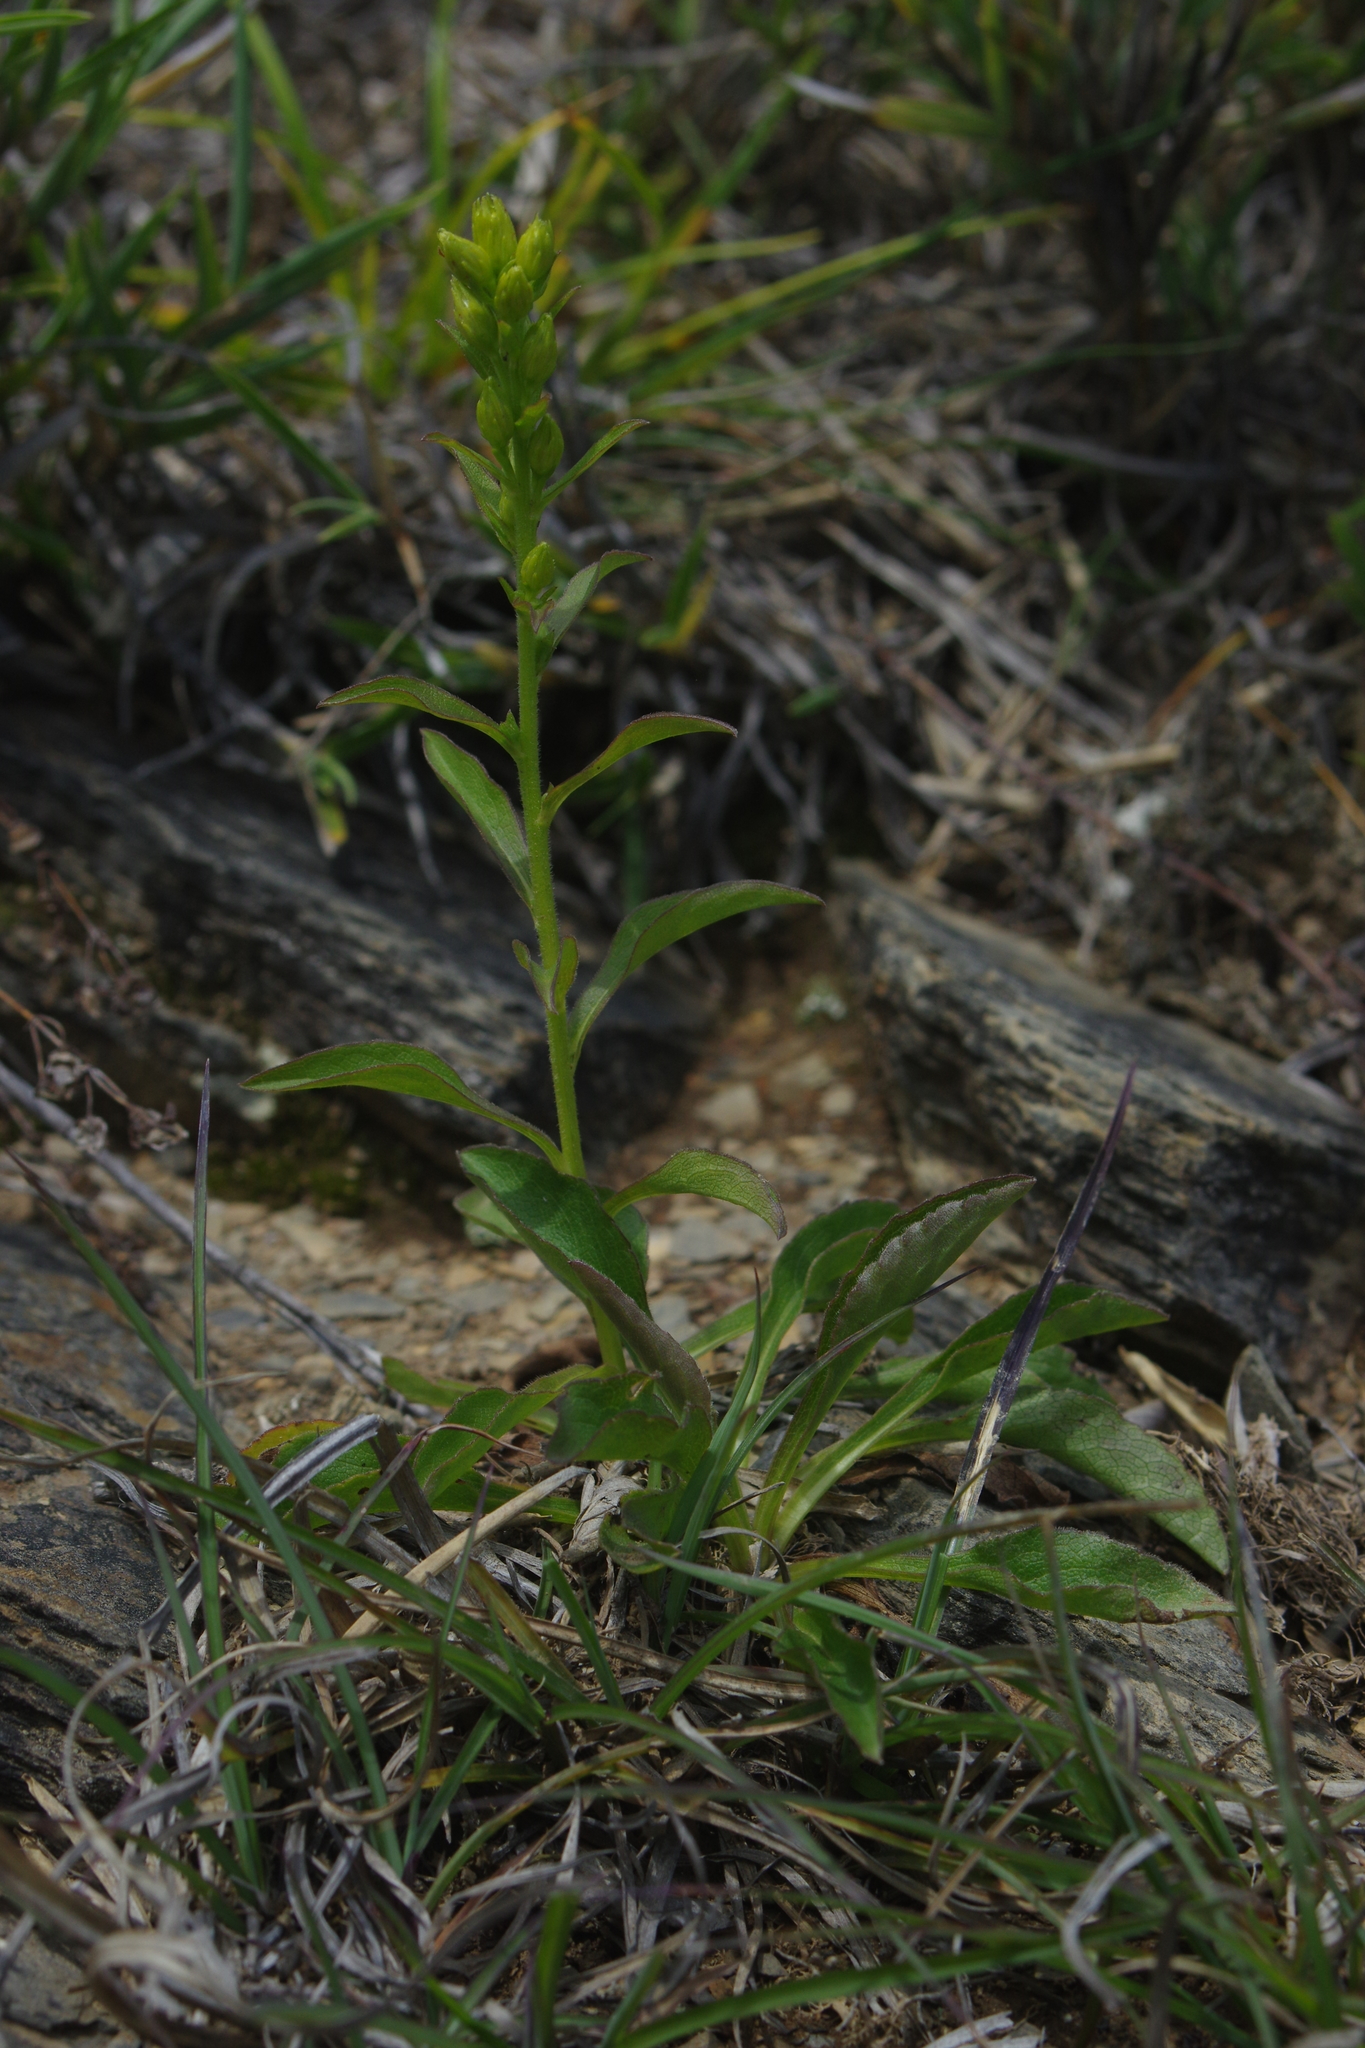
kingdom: Plantae
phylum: Tracheophyta
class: Magnoliopsida
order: Asterales
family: Asteraceae
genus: Solidago
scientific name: Solidago decurrens
